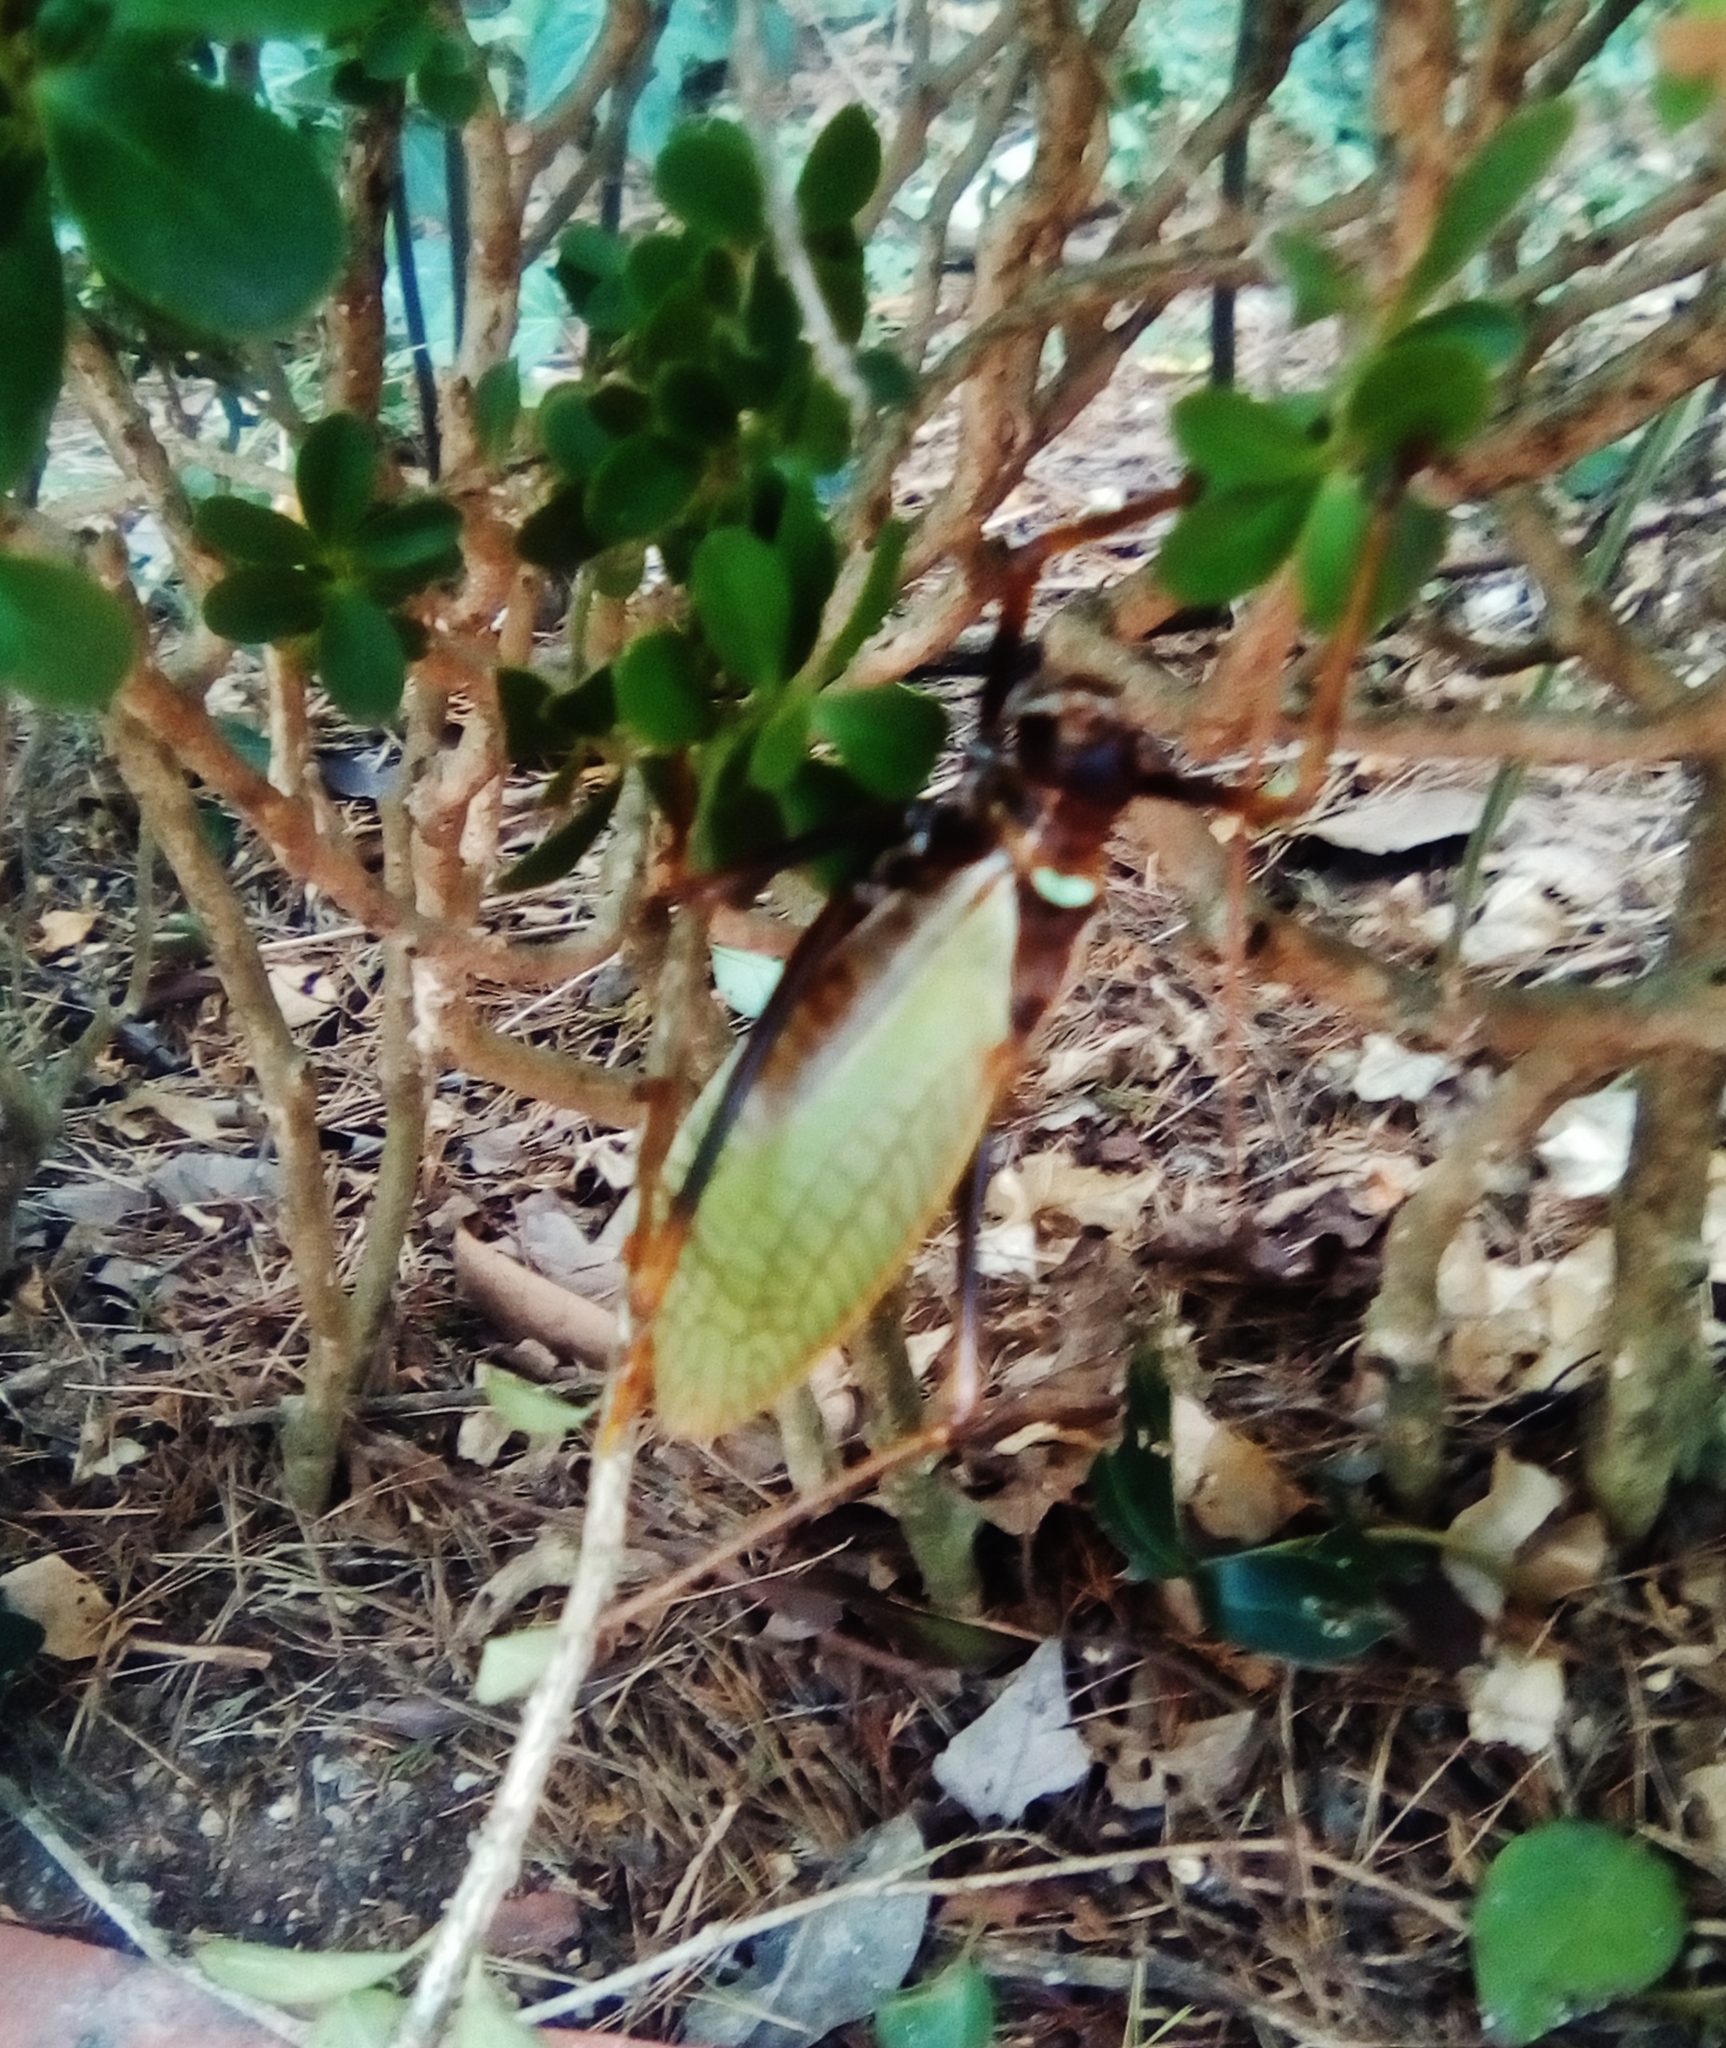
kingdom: Animalia
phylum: Arthropoda
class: Insecta
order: Orthoptera
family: Tettigoniidae
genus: Pterophylla
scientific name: Pterophylla beltrani
